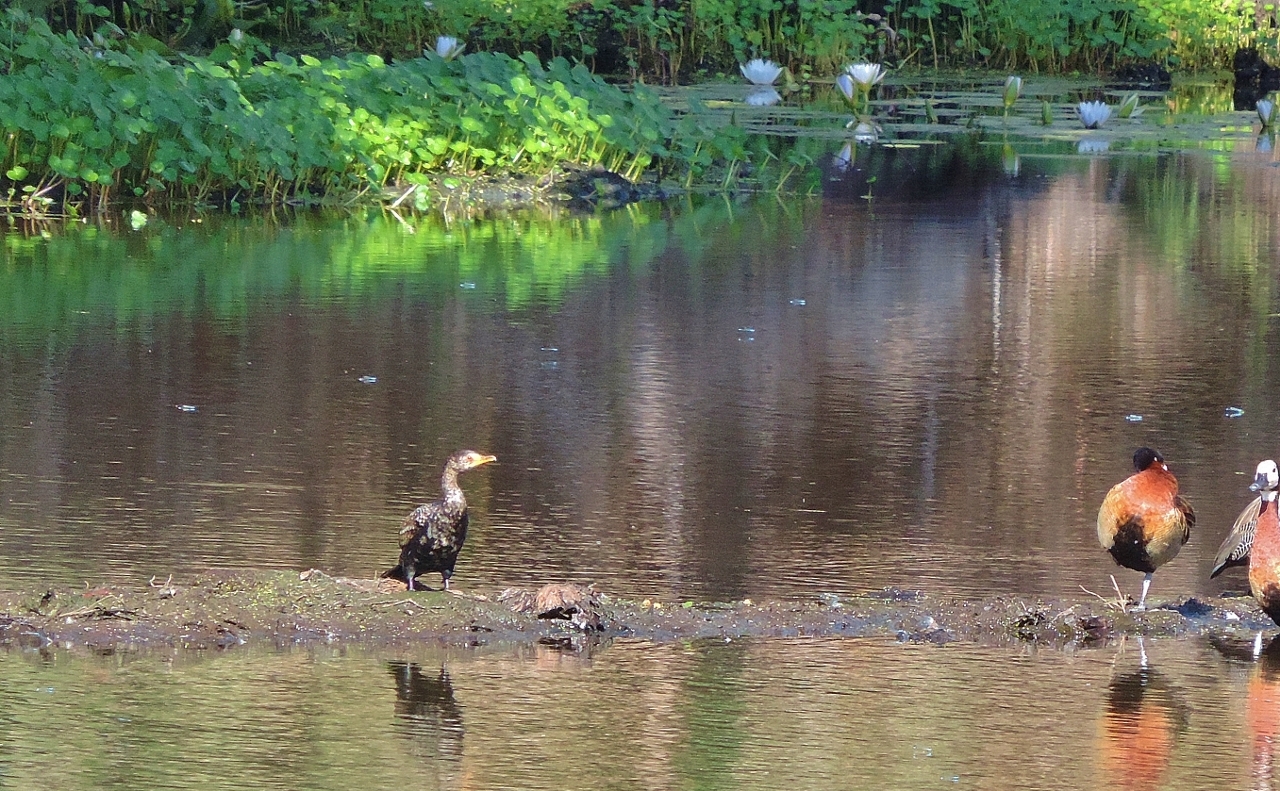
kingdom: Animalia
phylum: Chordata
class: Aves
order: Suliformes
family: Phalacrocoracidae
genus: Microcarbo
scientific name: Microcarbo africanus
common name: Long-tailed cormorant
